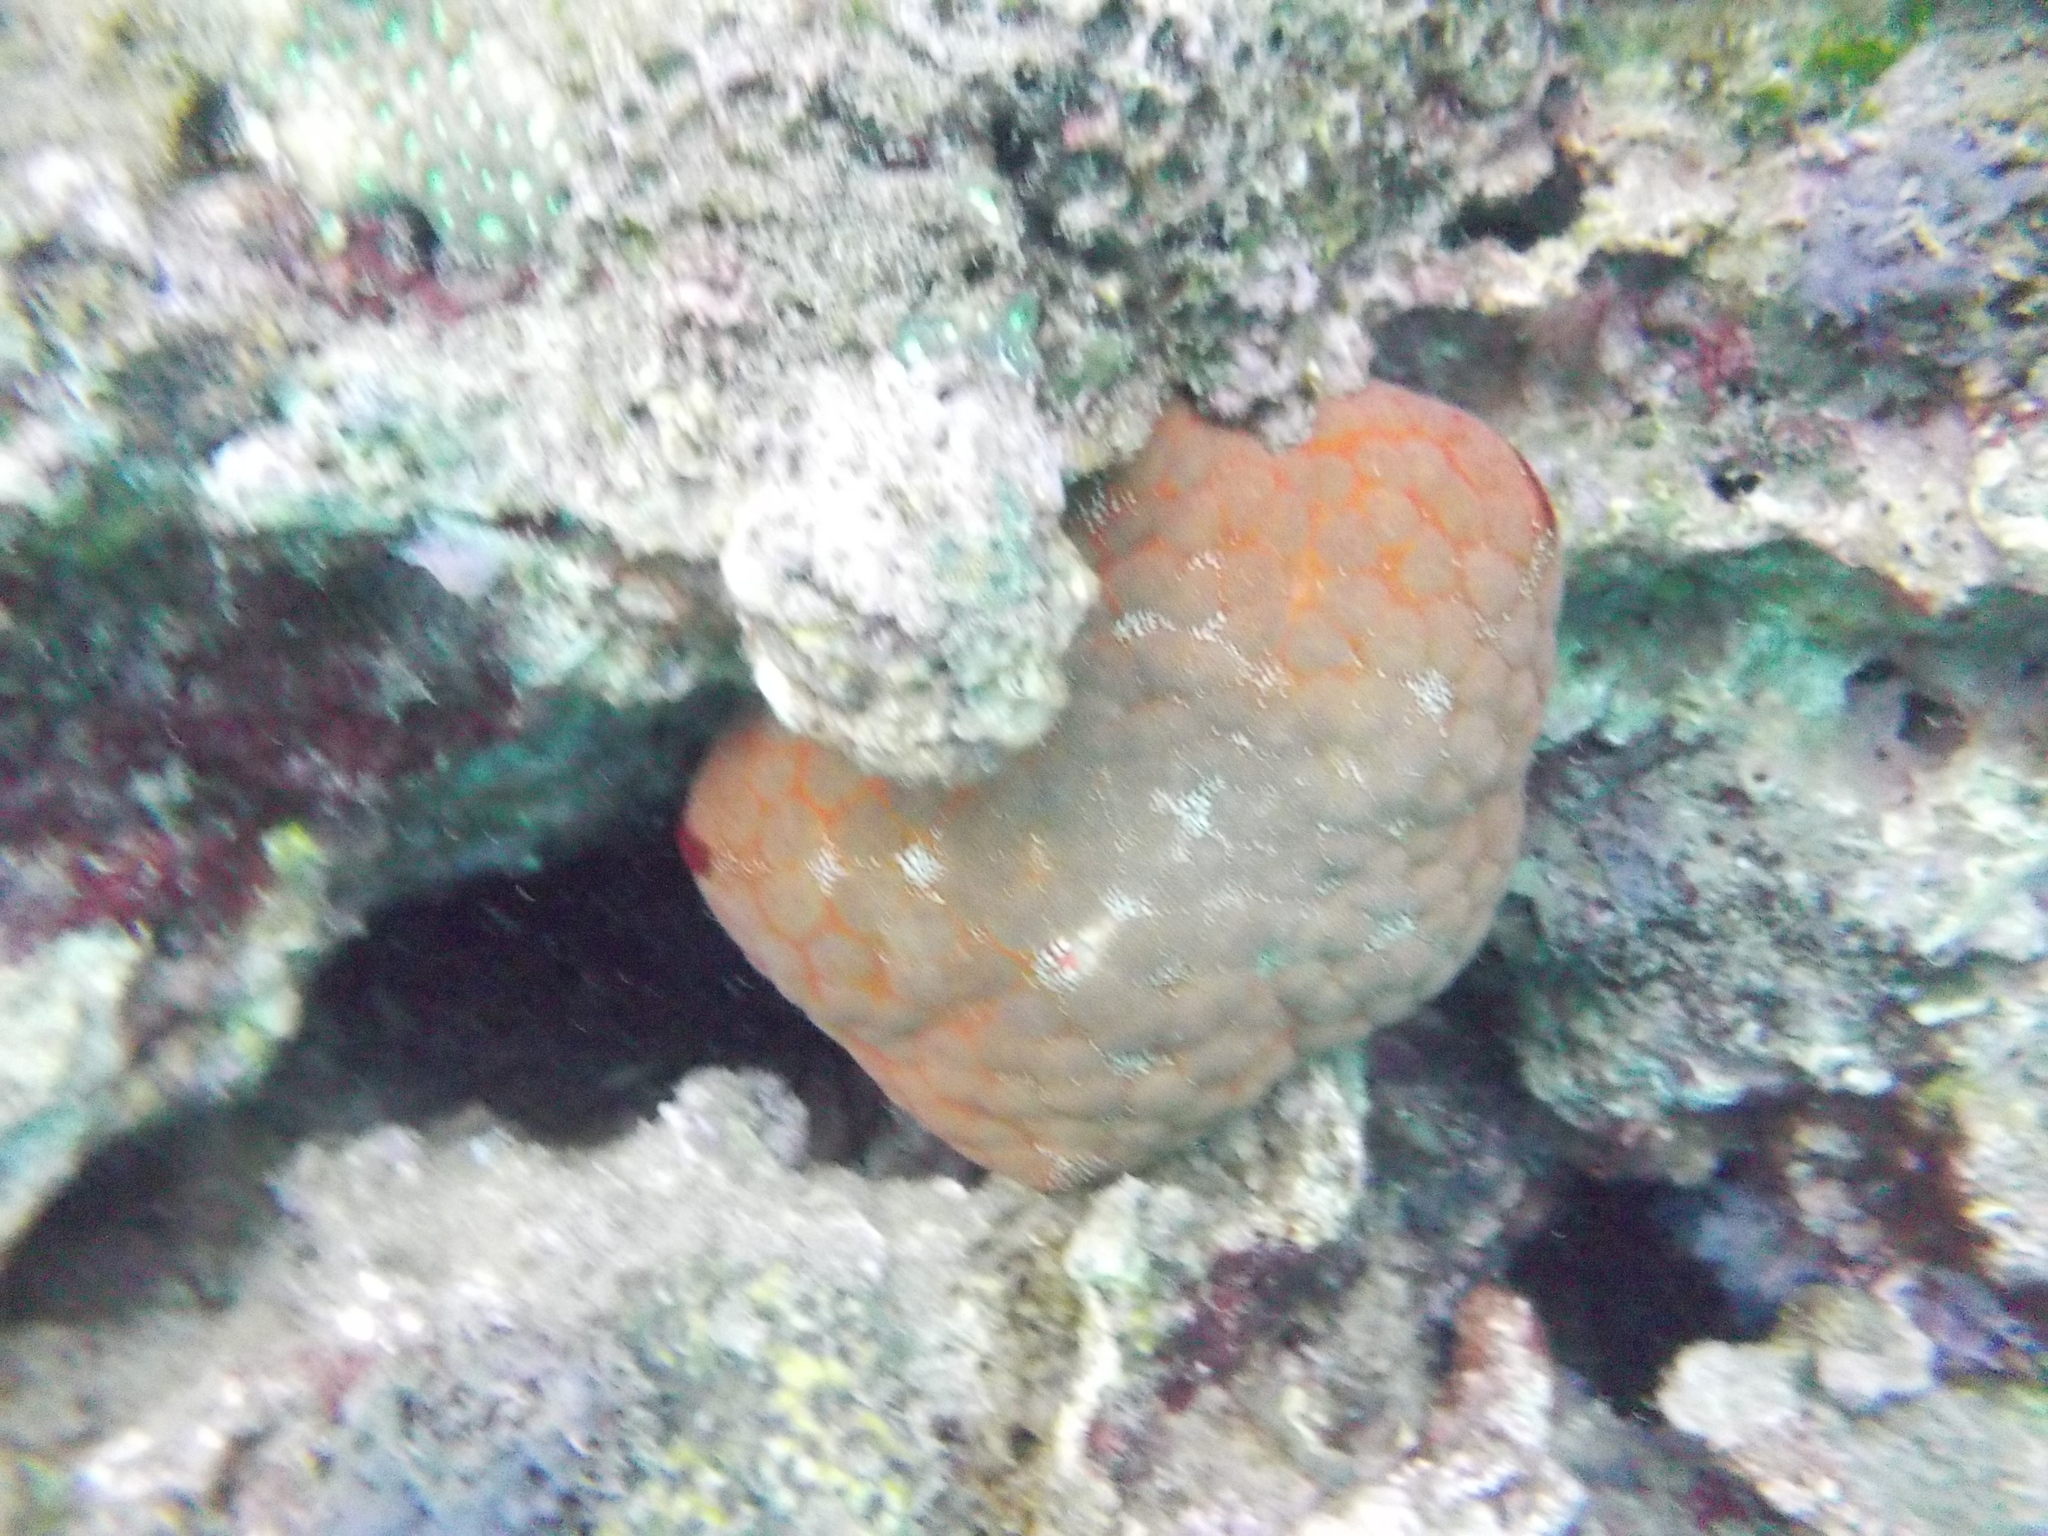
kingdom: Animalia
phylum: Echinodermata
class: Asteroidea
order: Valvatida
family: Oreasteridae
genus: Culcita
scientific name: Culcita novaeguineae
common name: Cushion star
